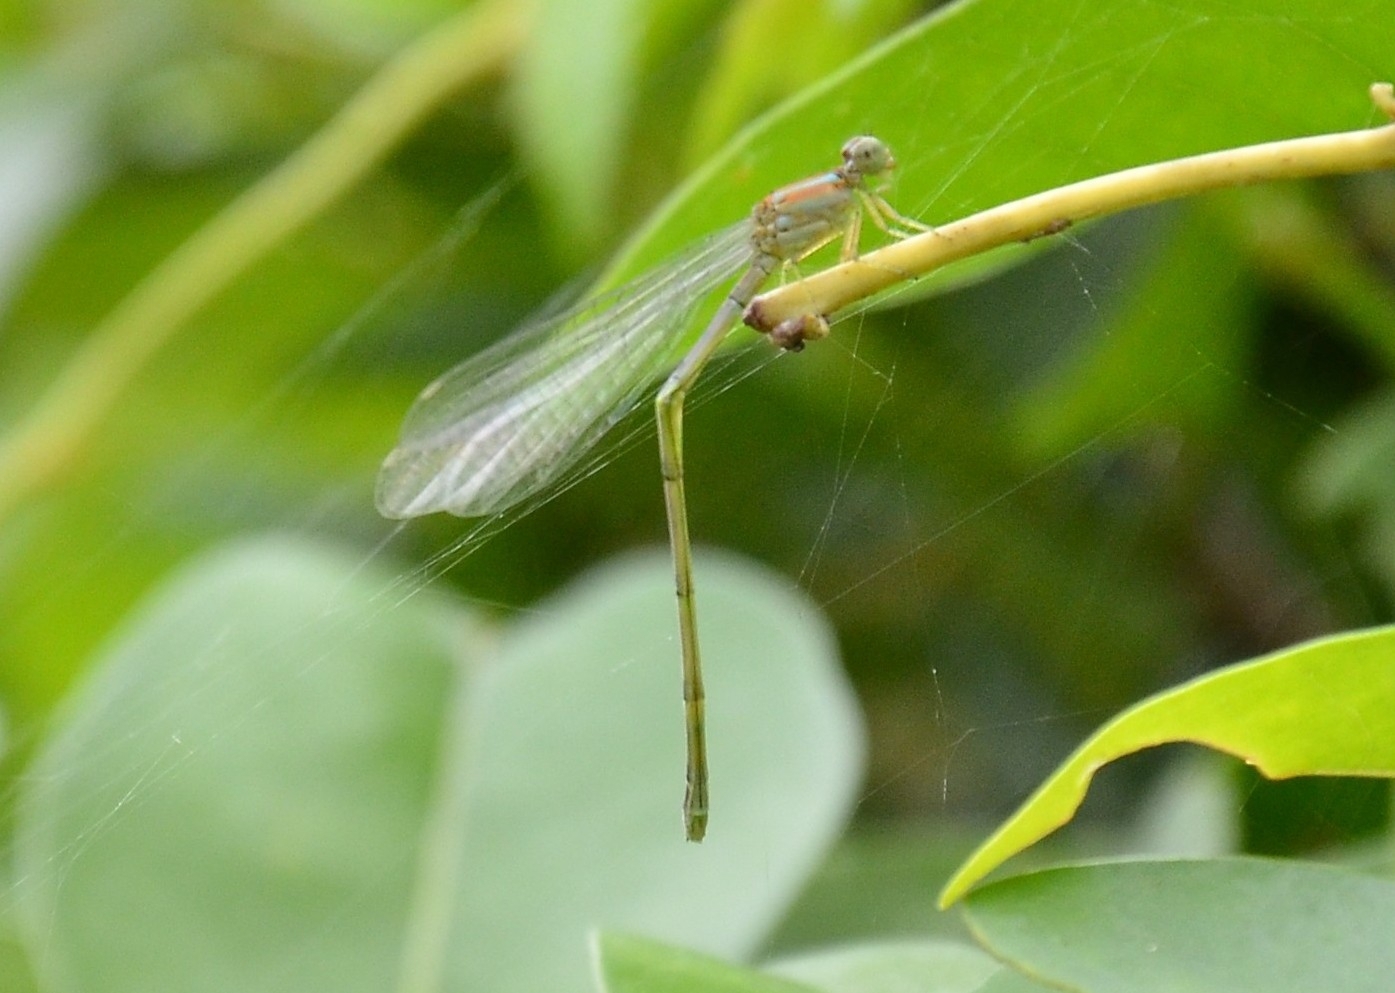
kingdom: Animalia
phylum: Arthropoda
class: Insecta
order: Odonata
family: Coenagrionidae
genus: Pseudagrion
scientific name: Pseudagrion microcephalum
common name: Blue riverdamsel
